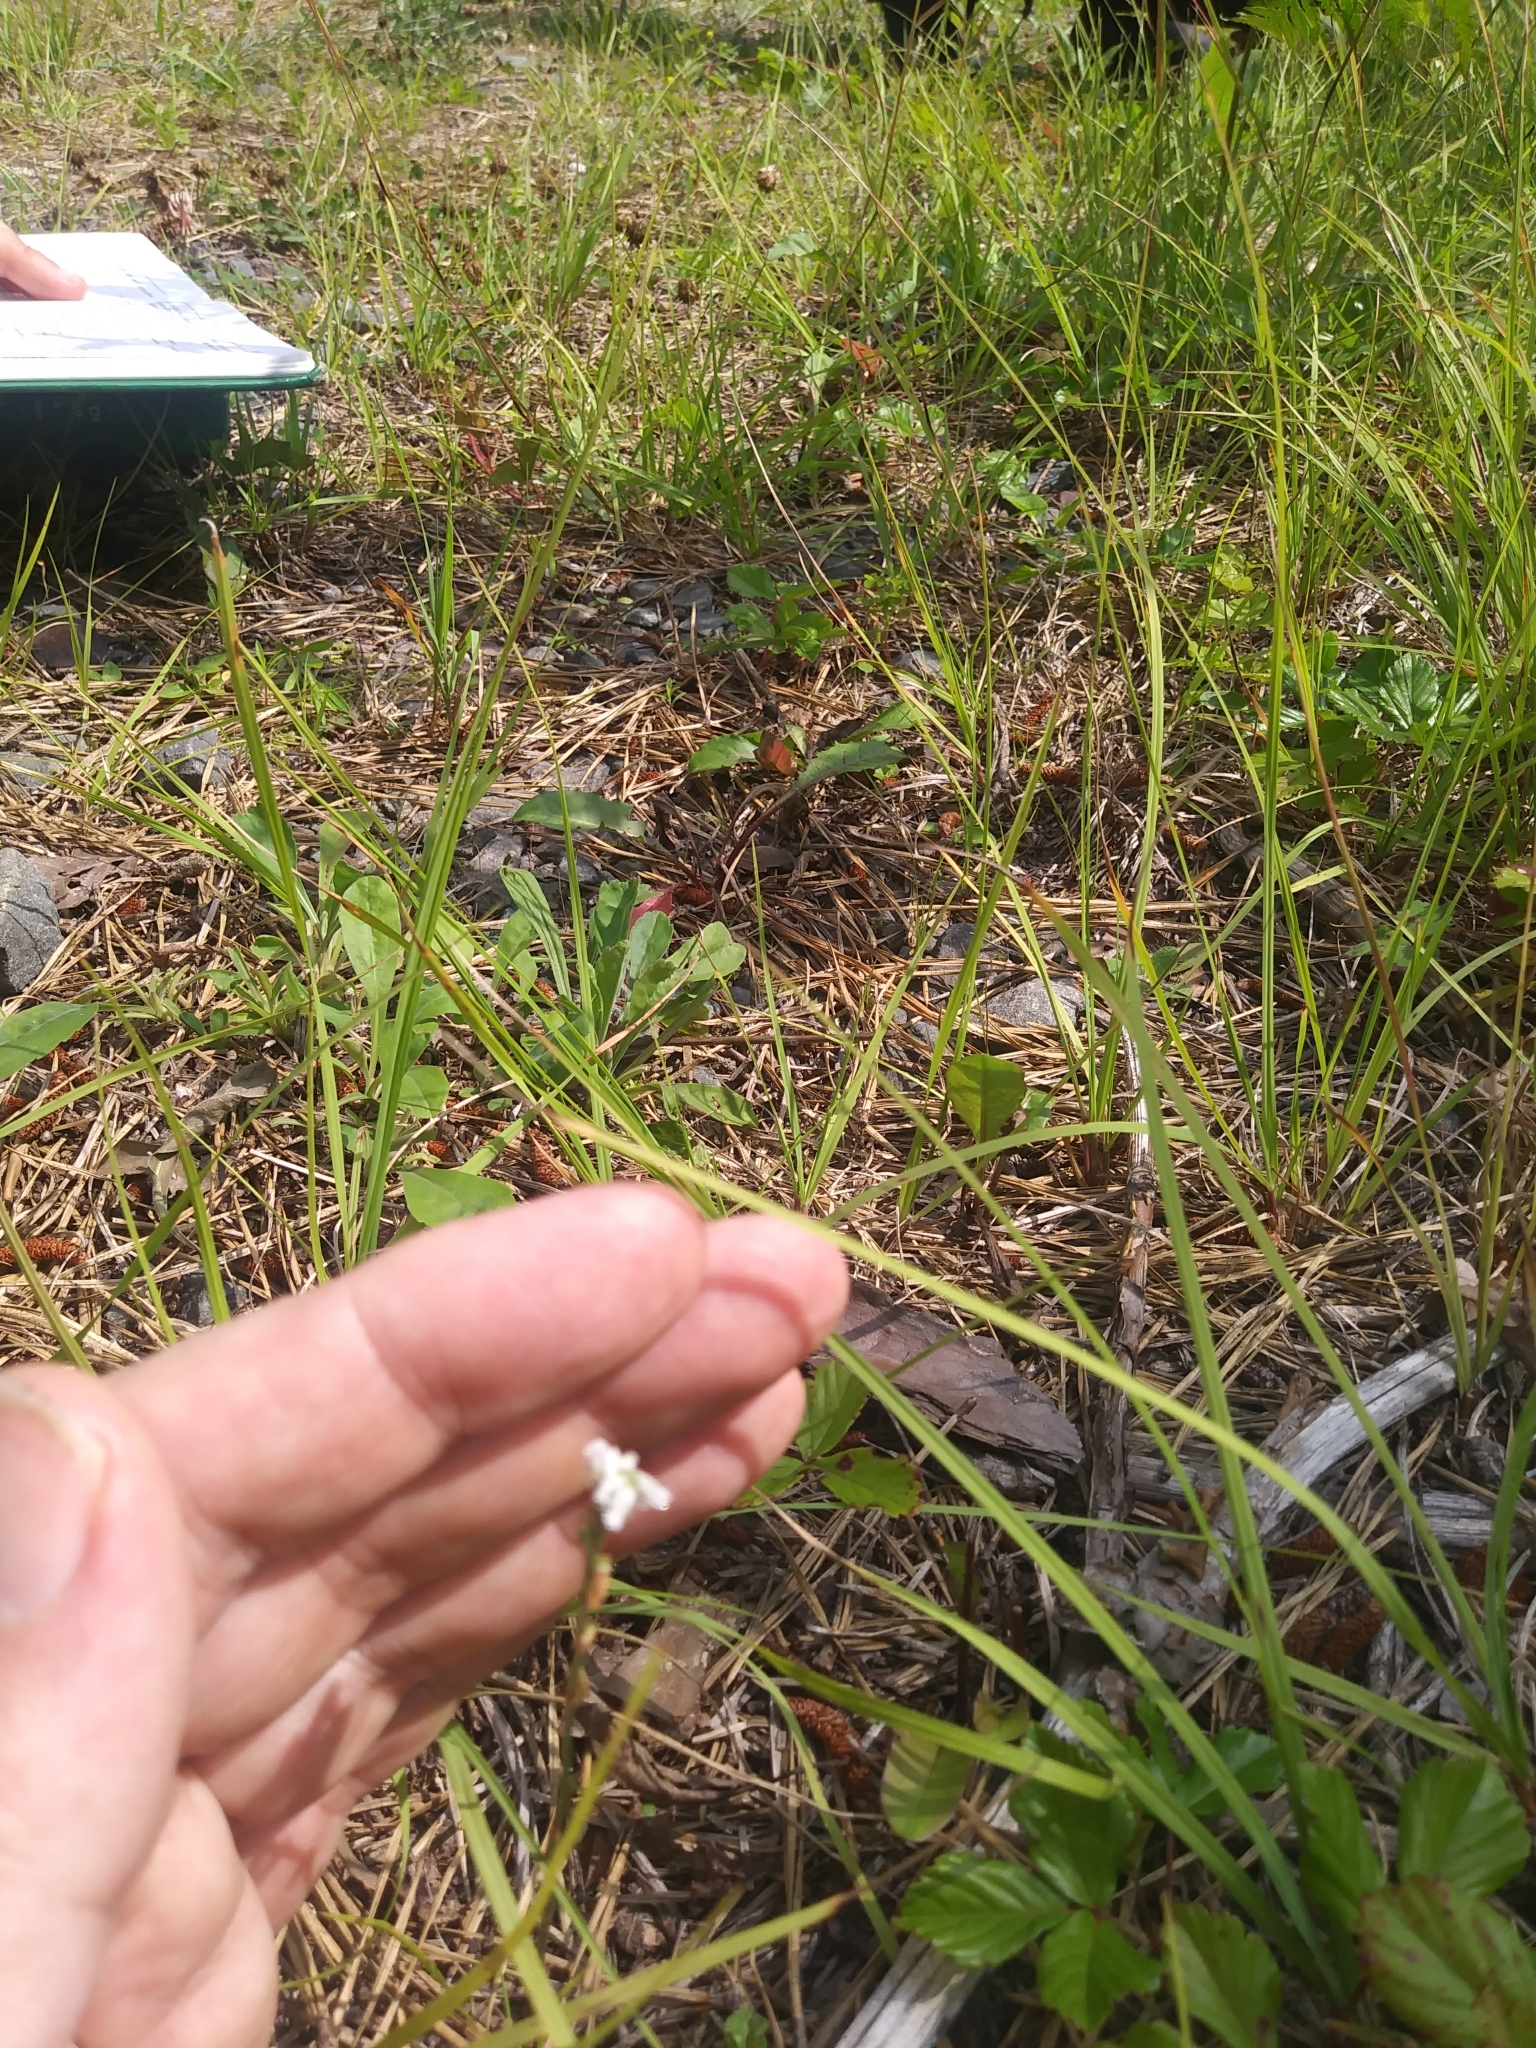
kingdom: Plantae
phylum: Tracheophyta
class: Liliopsida
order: Asparagales
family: Orchidaceae
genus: Spiranthes
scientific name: Spiranthes lacera
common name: Northern slender ladies'-tresses
